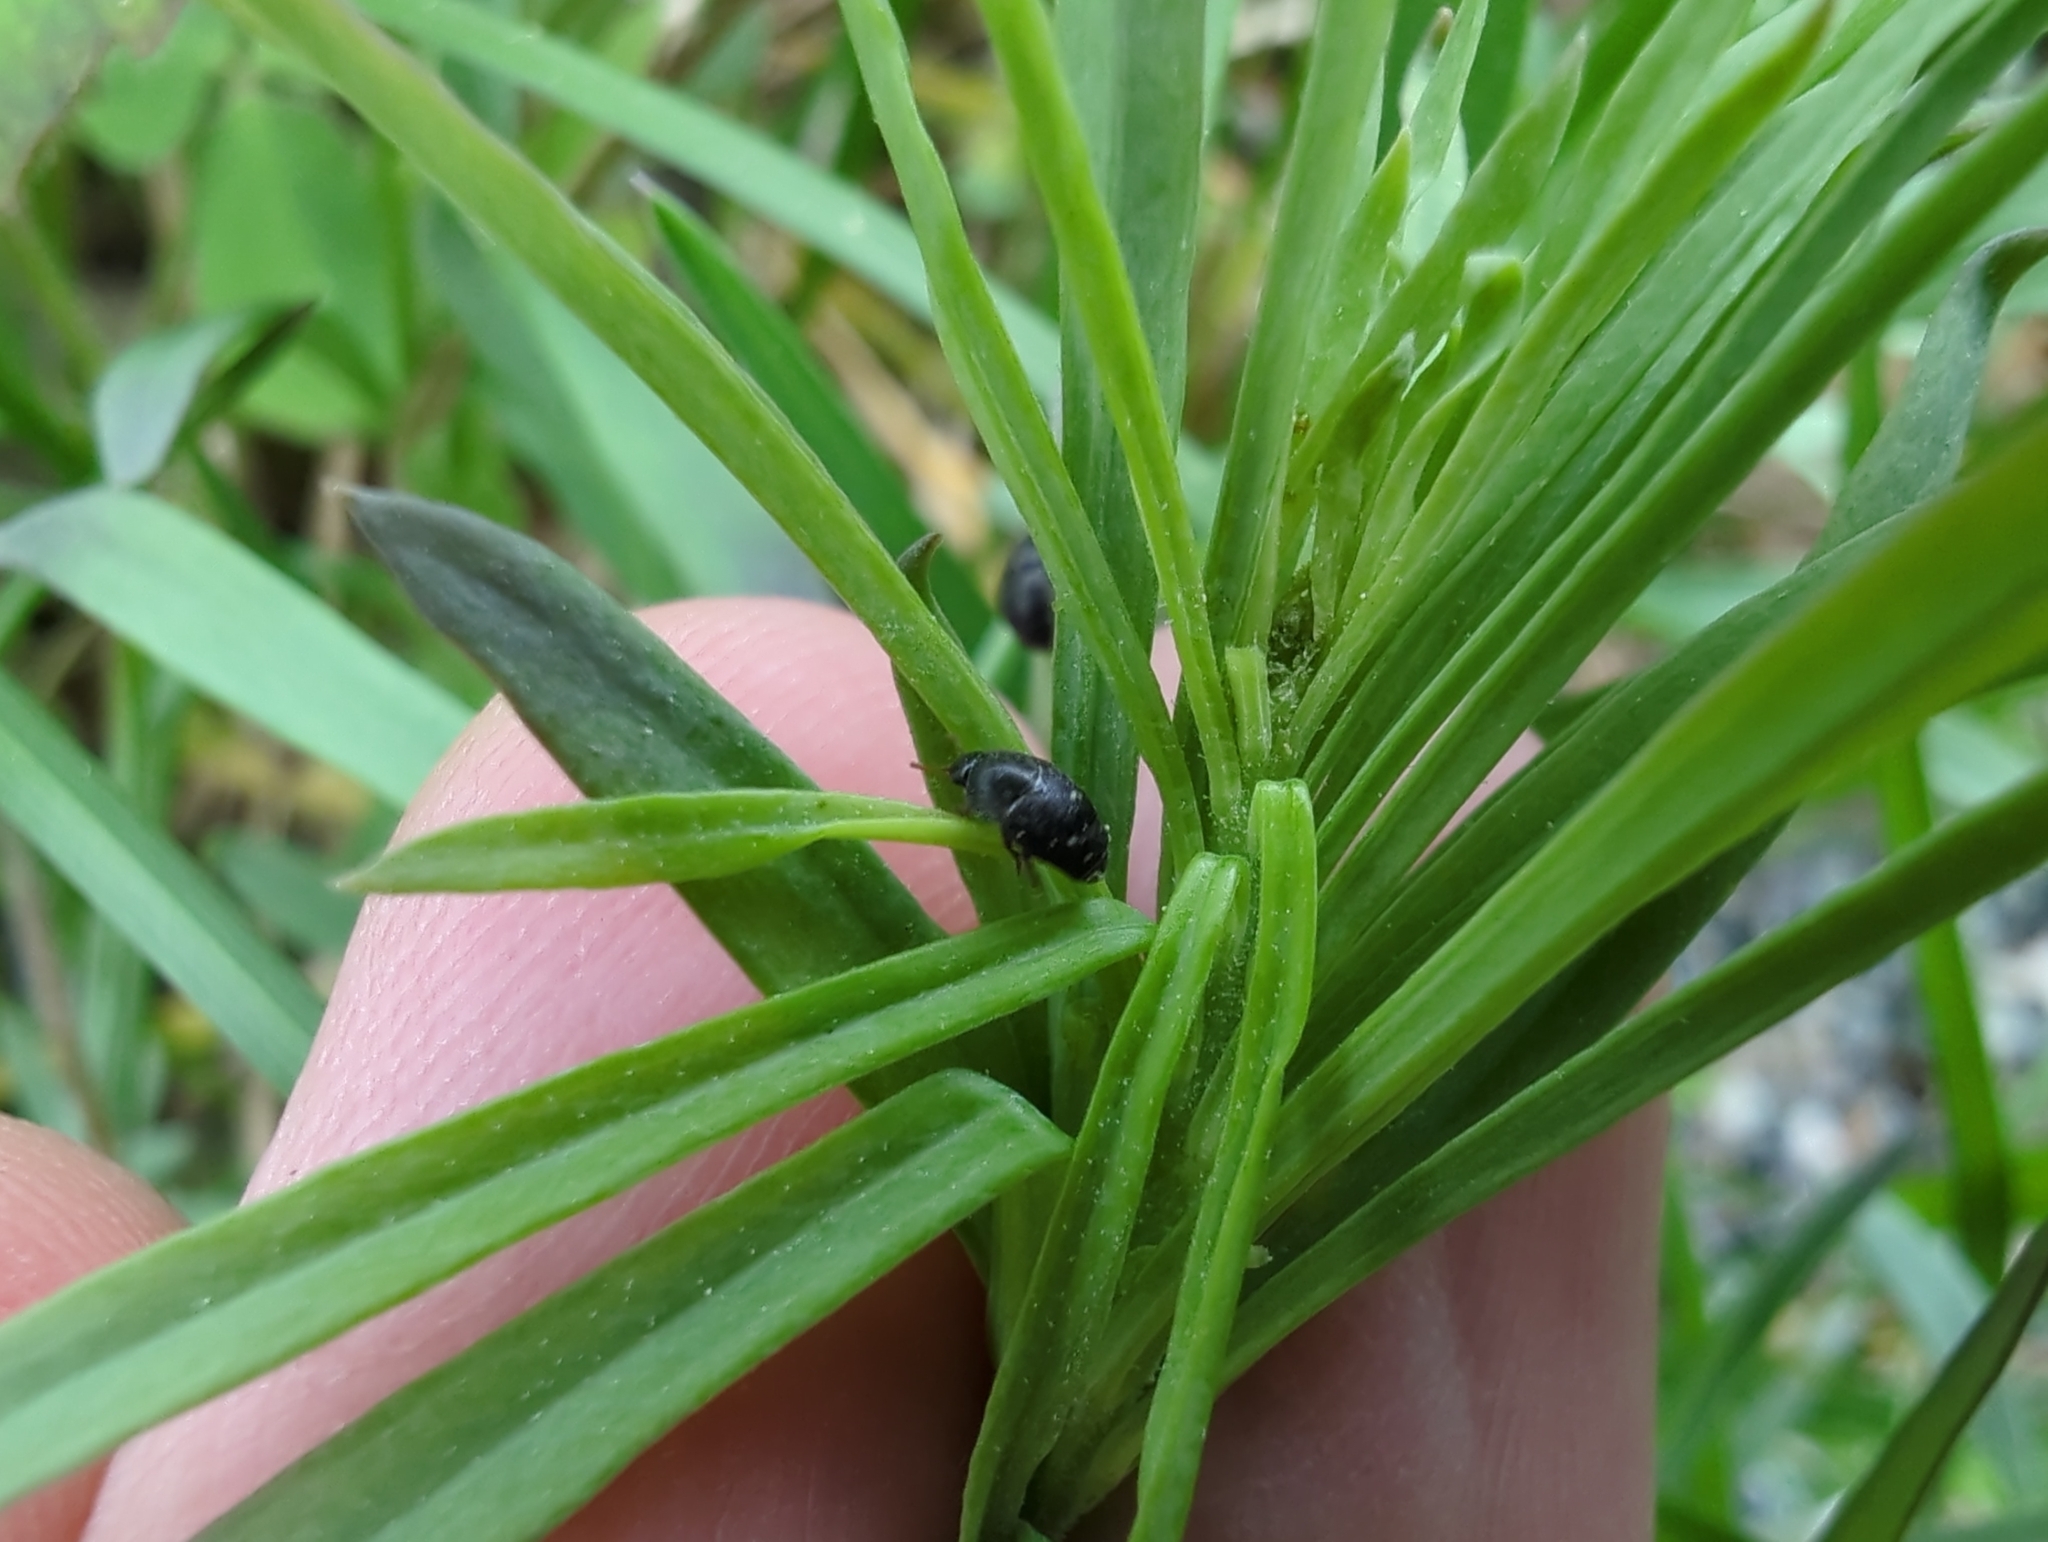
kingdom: Animalia
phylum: Arthropoda
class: Insecta
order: Coleoptera
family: Kateretidae
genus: Brachypterolus
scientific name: Brachypterolus pulicarius
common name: Antirrhinum beetle
